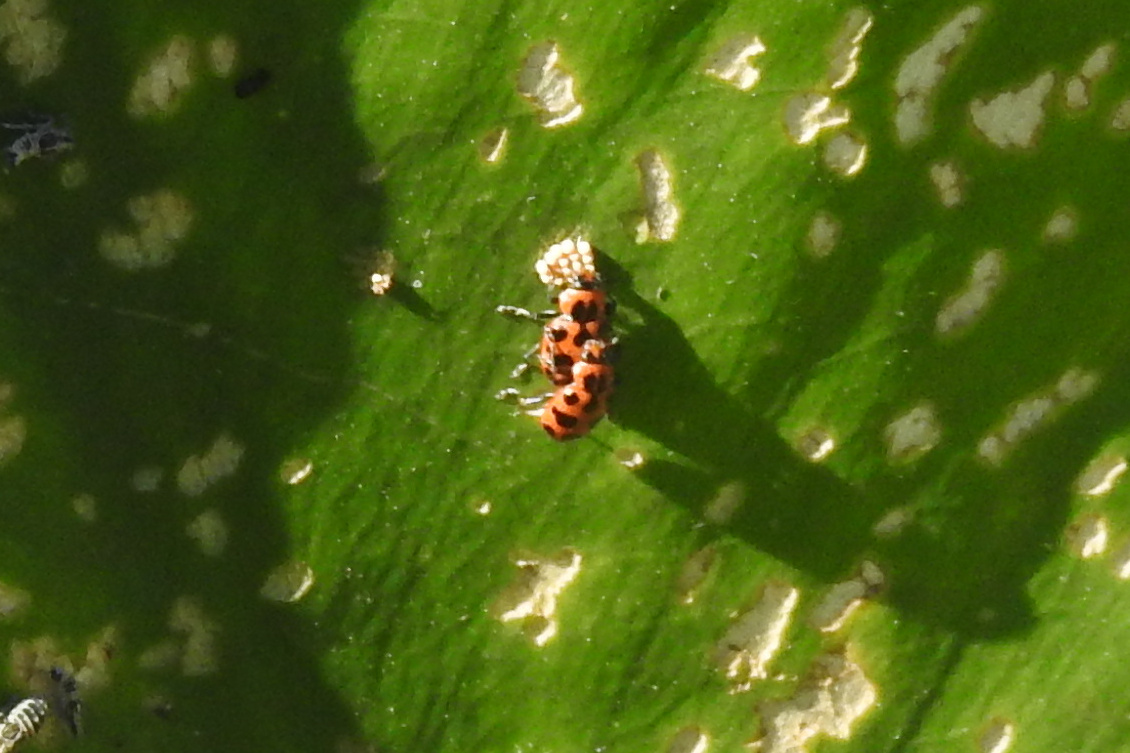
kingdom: Animalia
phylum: Arthropoda
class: Insecta
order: Coleoptera
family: Coccinellidae
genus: Coleomegilla
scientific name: Coleomegilla maculata
